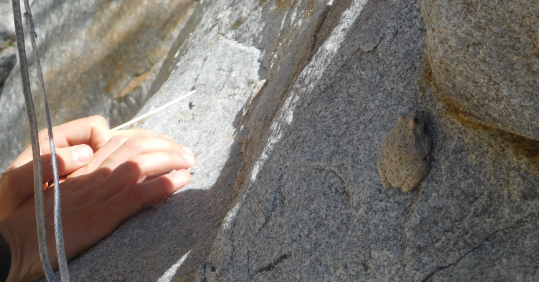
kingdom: Animalia
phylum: Chordata
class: Amphibia
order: Anura
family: Hylidae
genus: Dryophytes
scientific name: Dryophytes arenicolor
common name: Canyon treefrog
